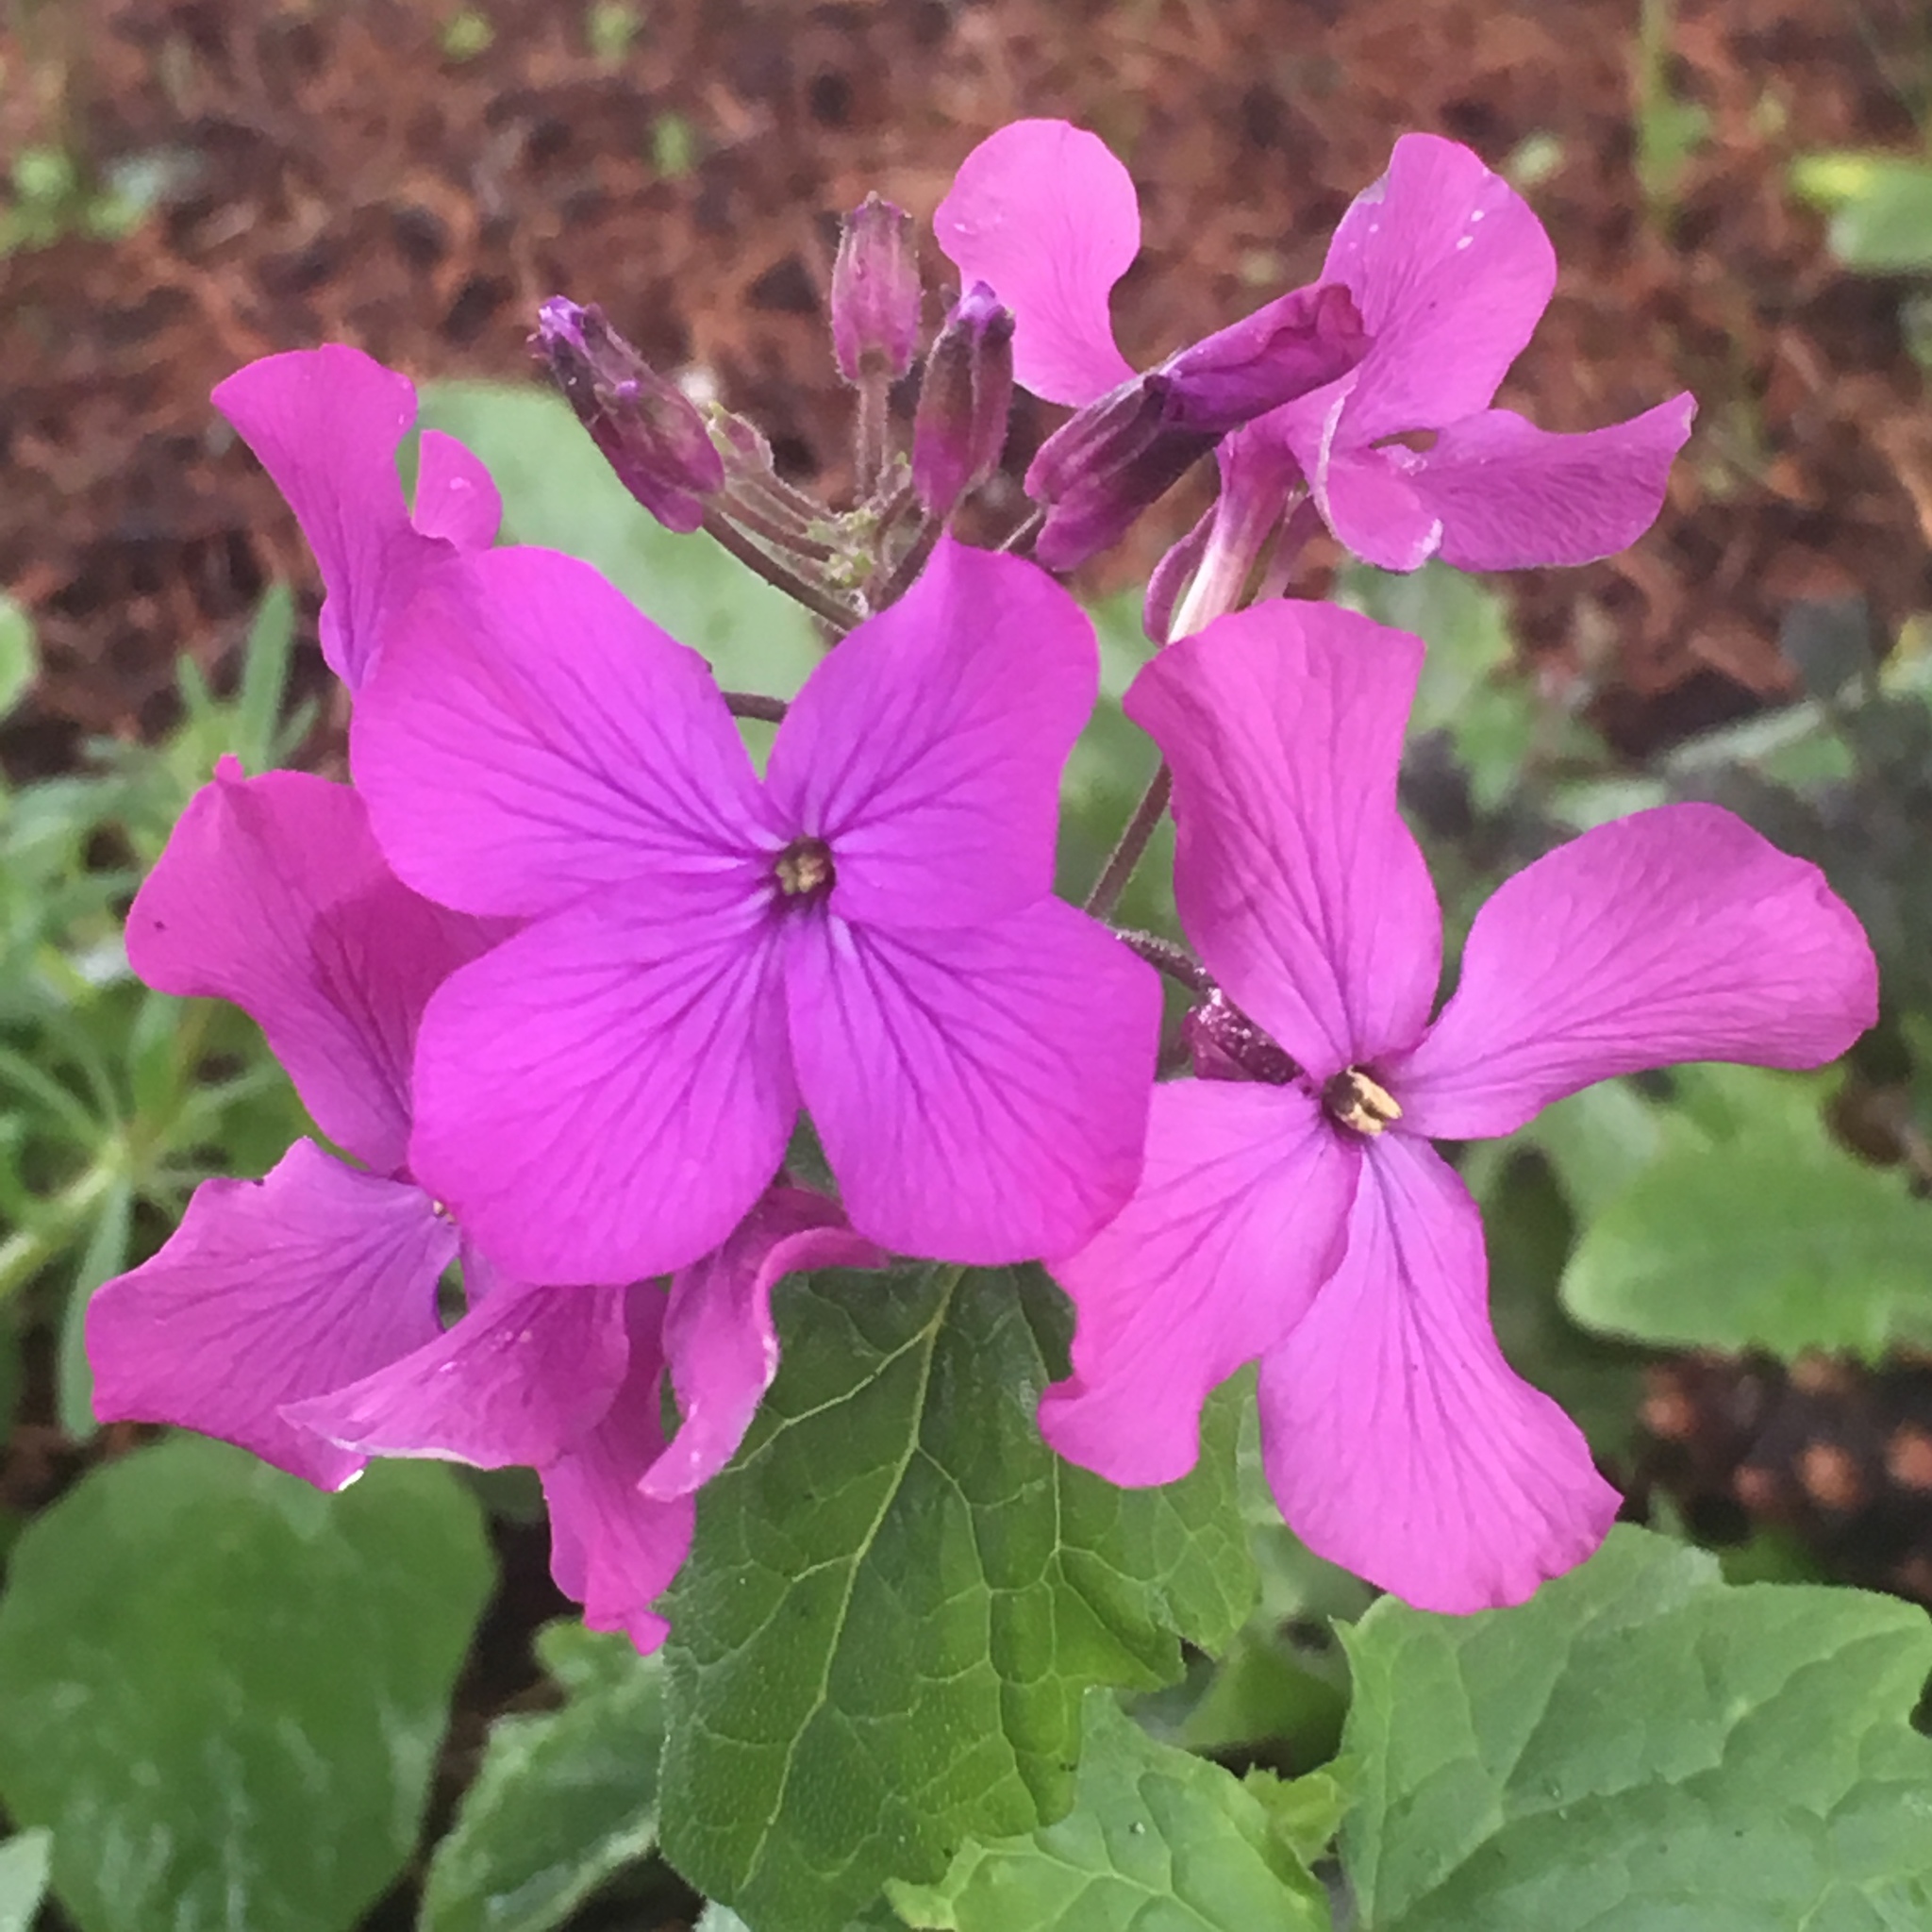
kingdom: Plantae
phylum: Tracheophyta
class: Magnoliopsida
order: Brassicales
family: Brassicaceae
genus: Lunaria
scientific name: Lunaria annua
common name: Honesty
